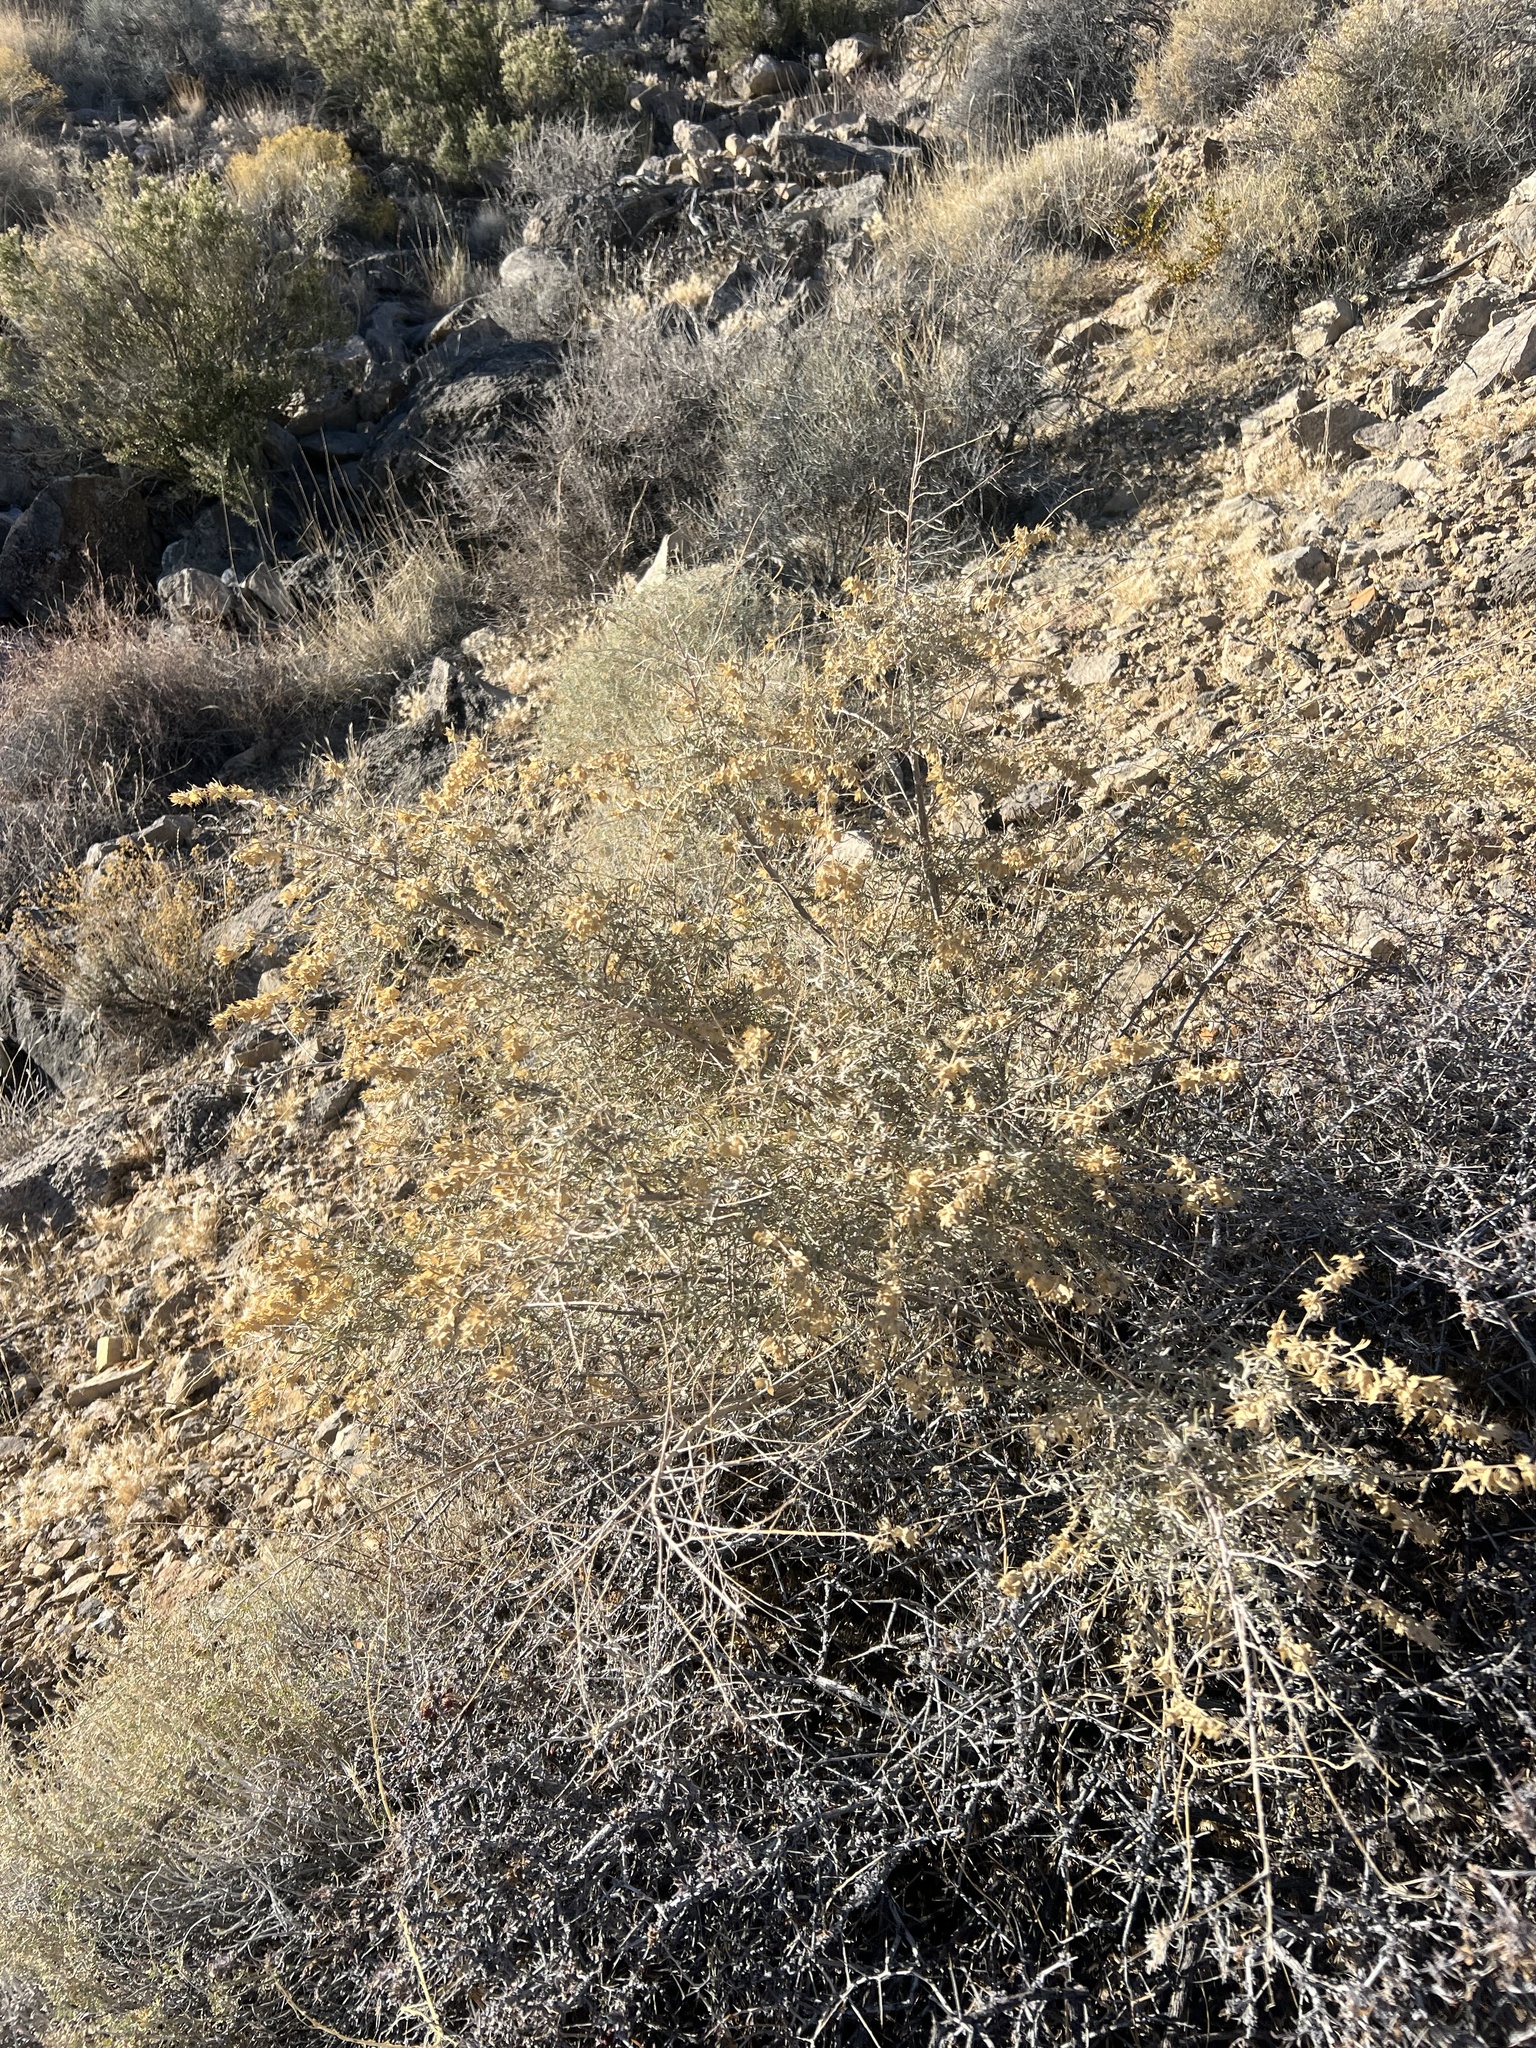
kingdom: Plantae
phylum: Tracheophyta
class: Magnoliopsida
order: Caryophyllales
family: Amaranthaceae
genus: Atriplex
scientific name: Atriplex canescens
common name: Four-wing saltbush
